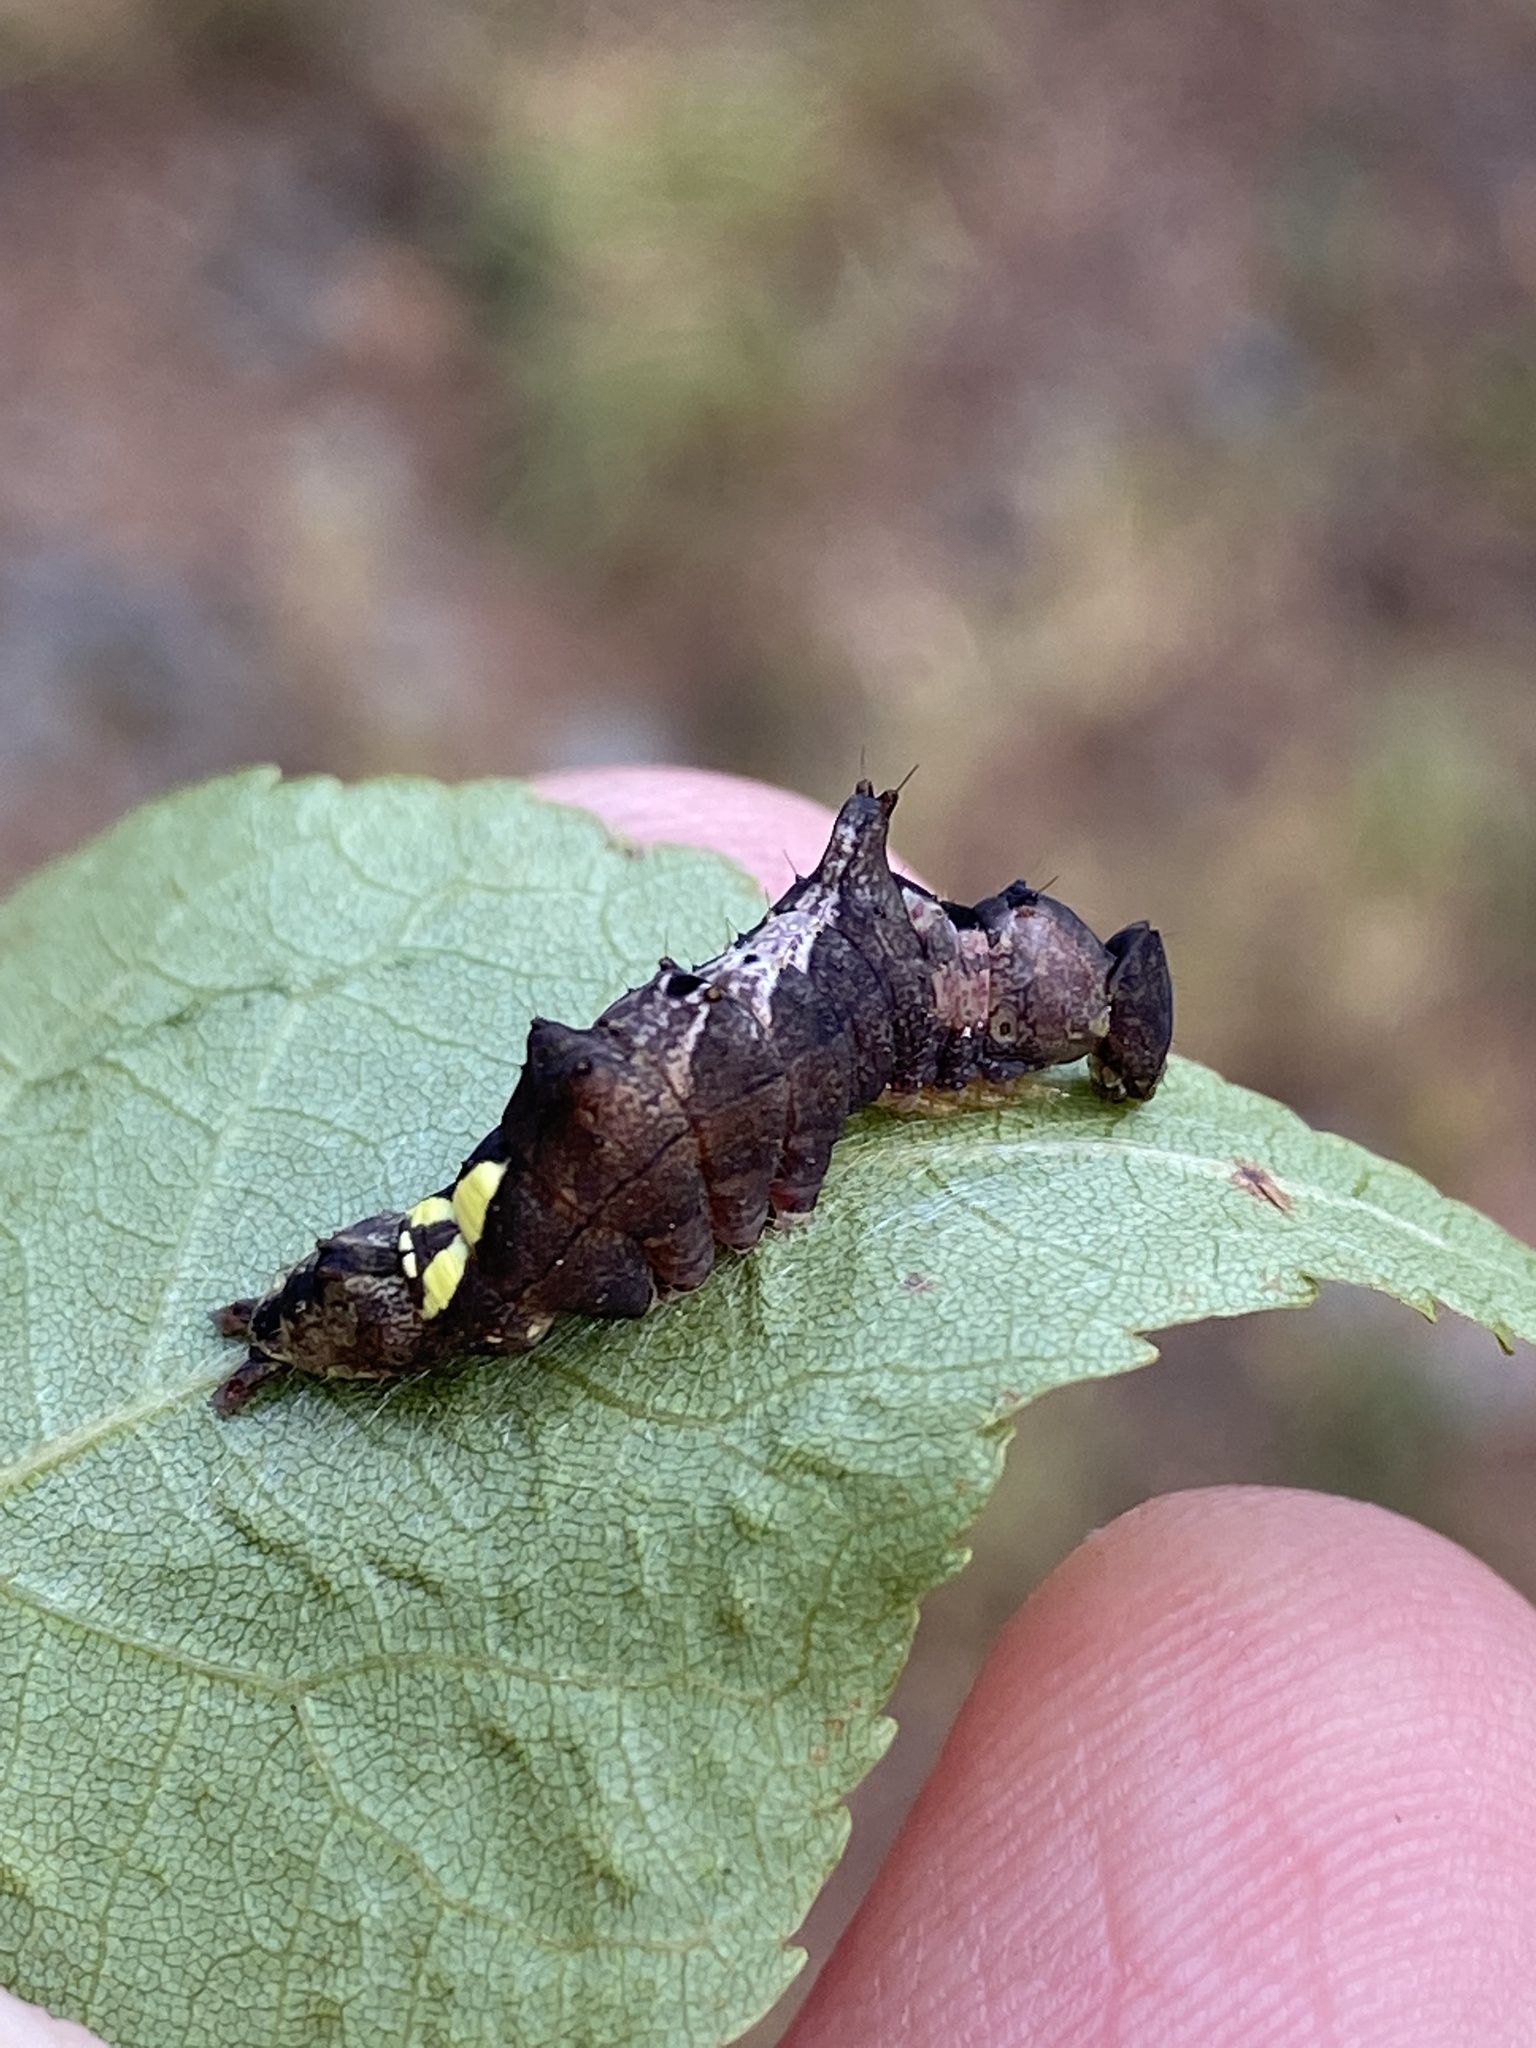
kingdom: Animalia
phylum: Arthropoda
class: Insecta
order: Lepidoptera
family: Notodontidae
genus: Schizura
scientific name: Schizura
